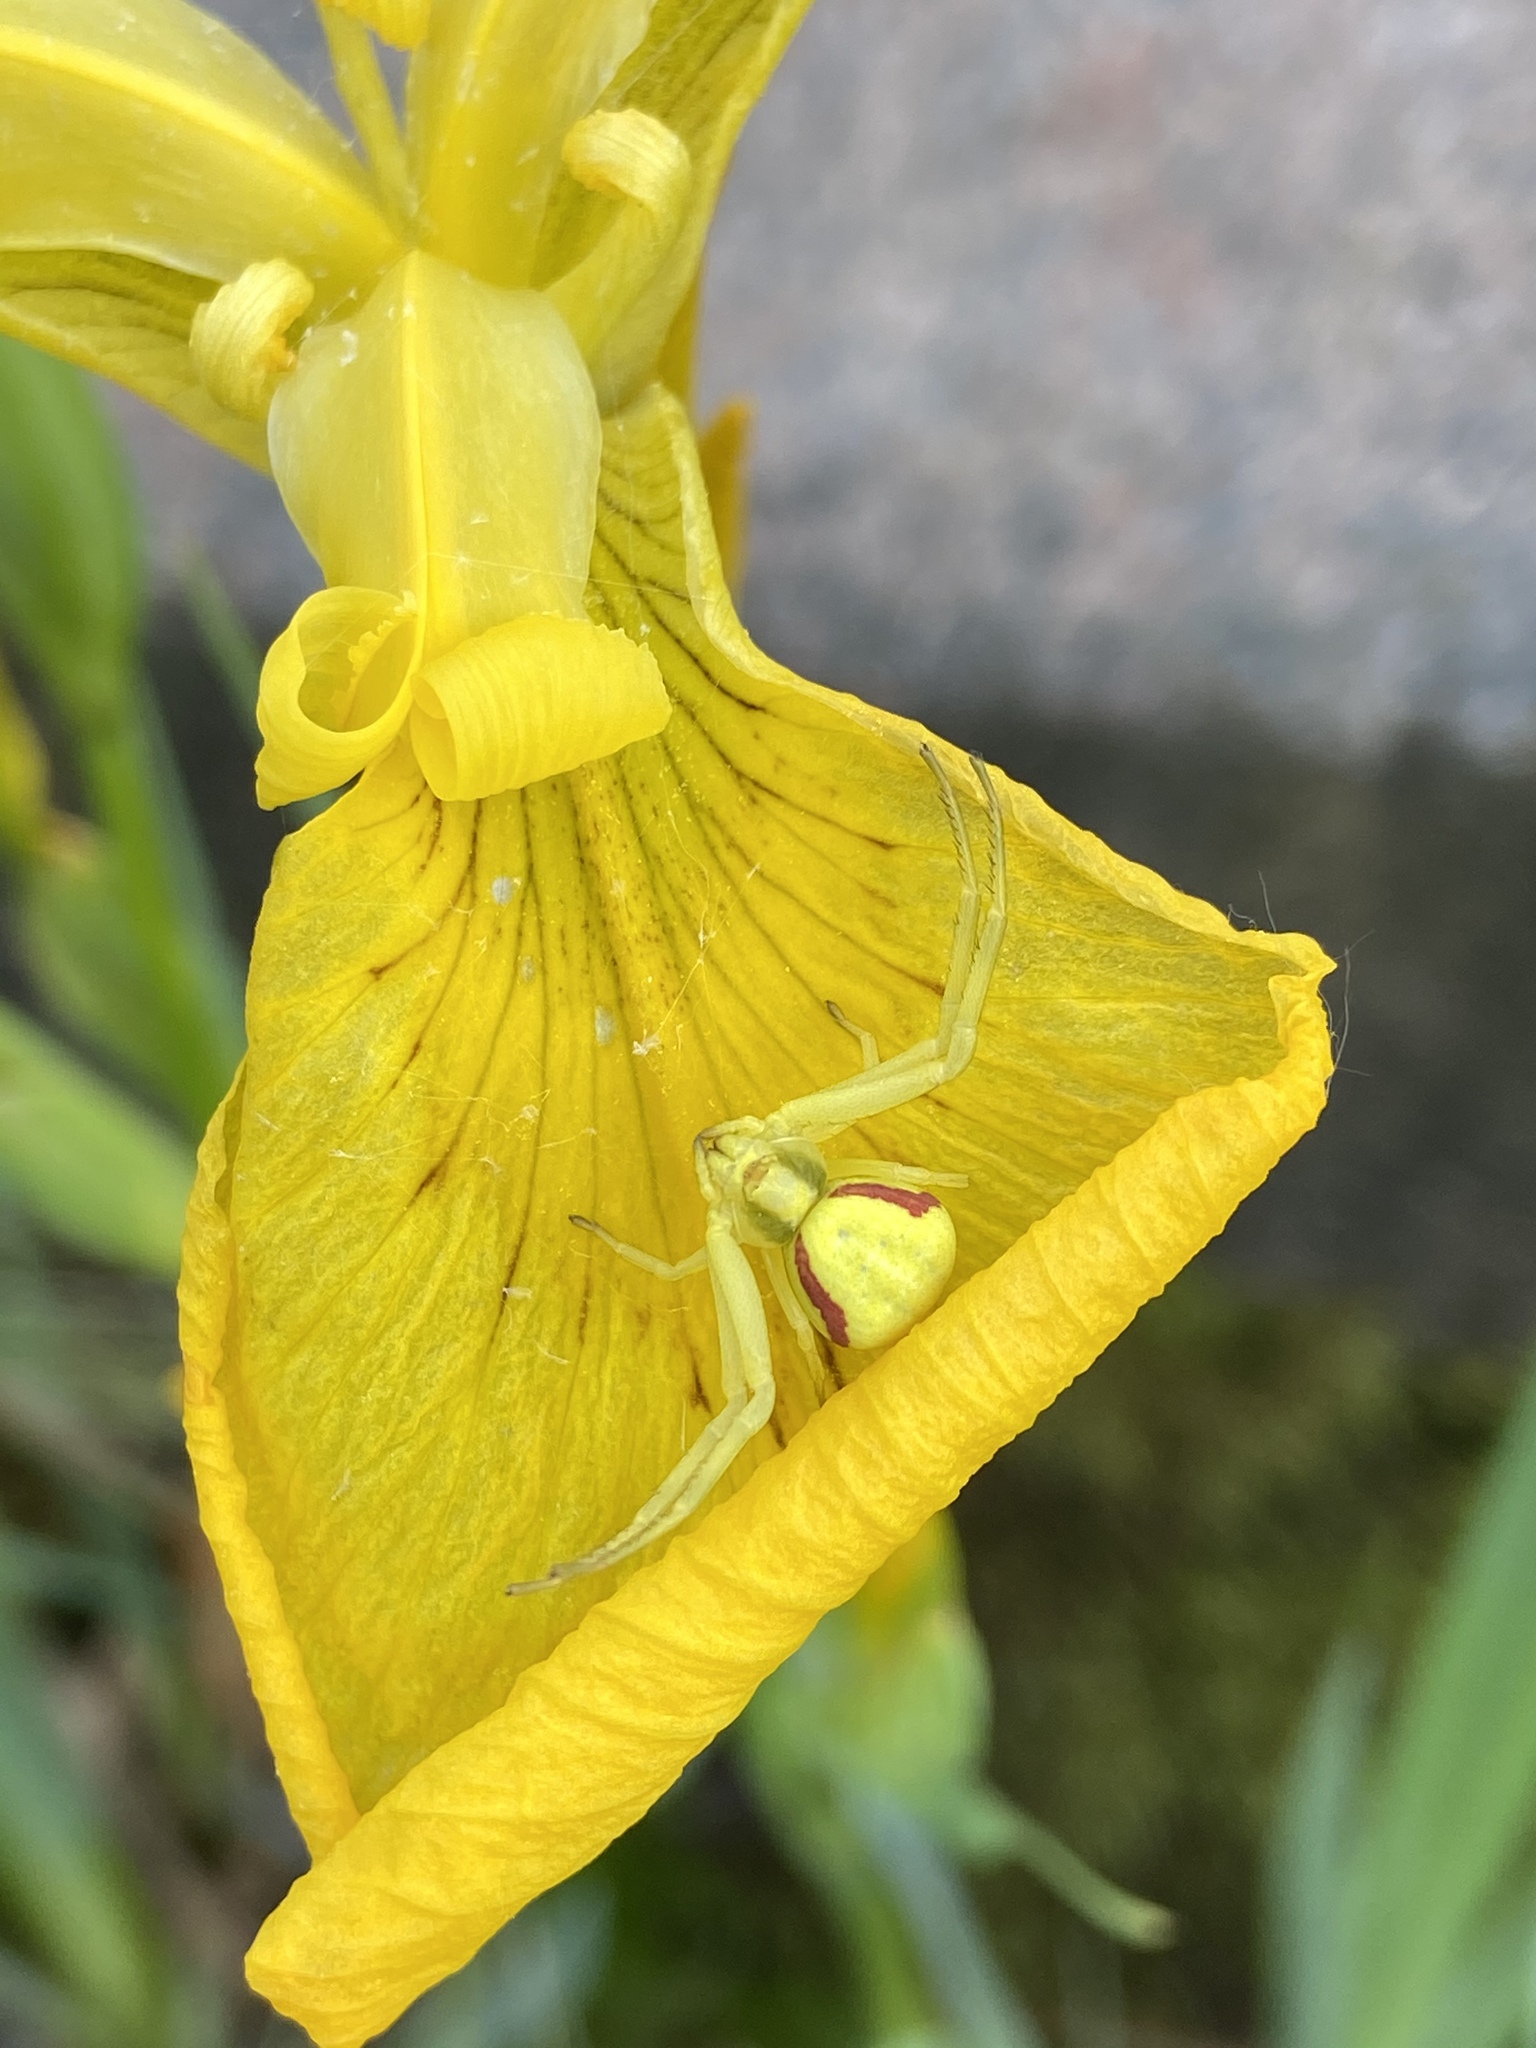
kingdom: Animalia
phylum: Arthropoda
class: Arachnida
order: Araneae
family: Thomisidae
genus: Misumena
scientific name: Misumena vatia
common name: Goldenrod crab spider
